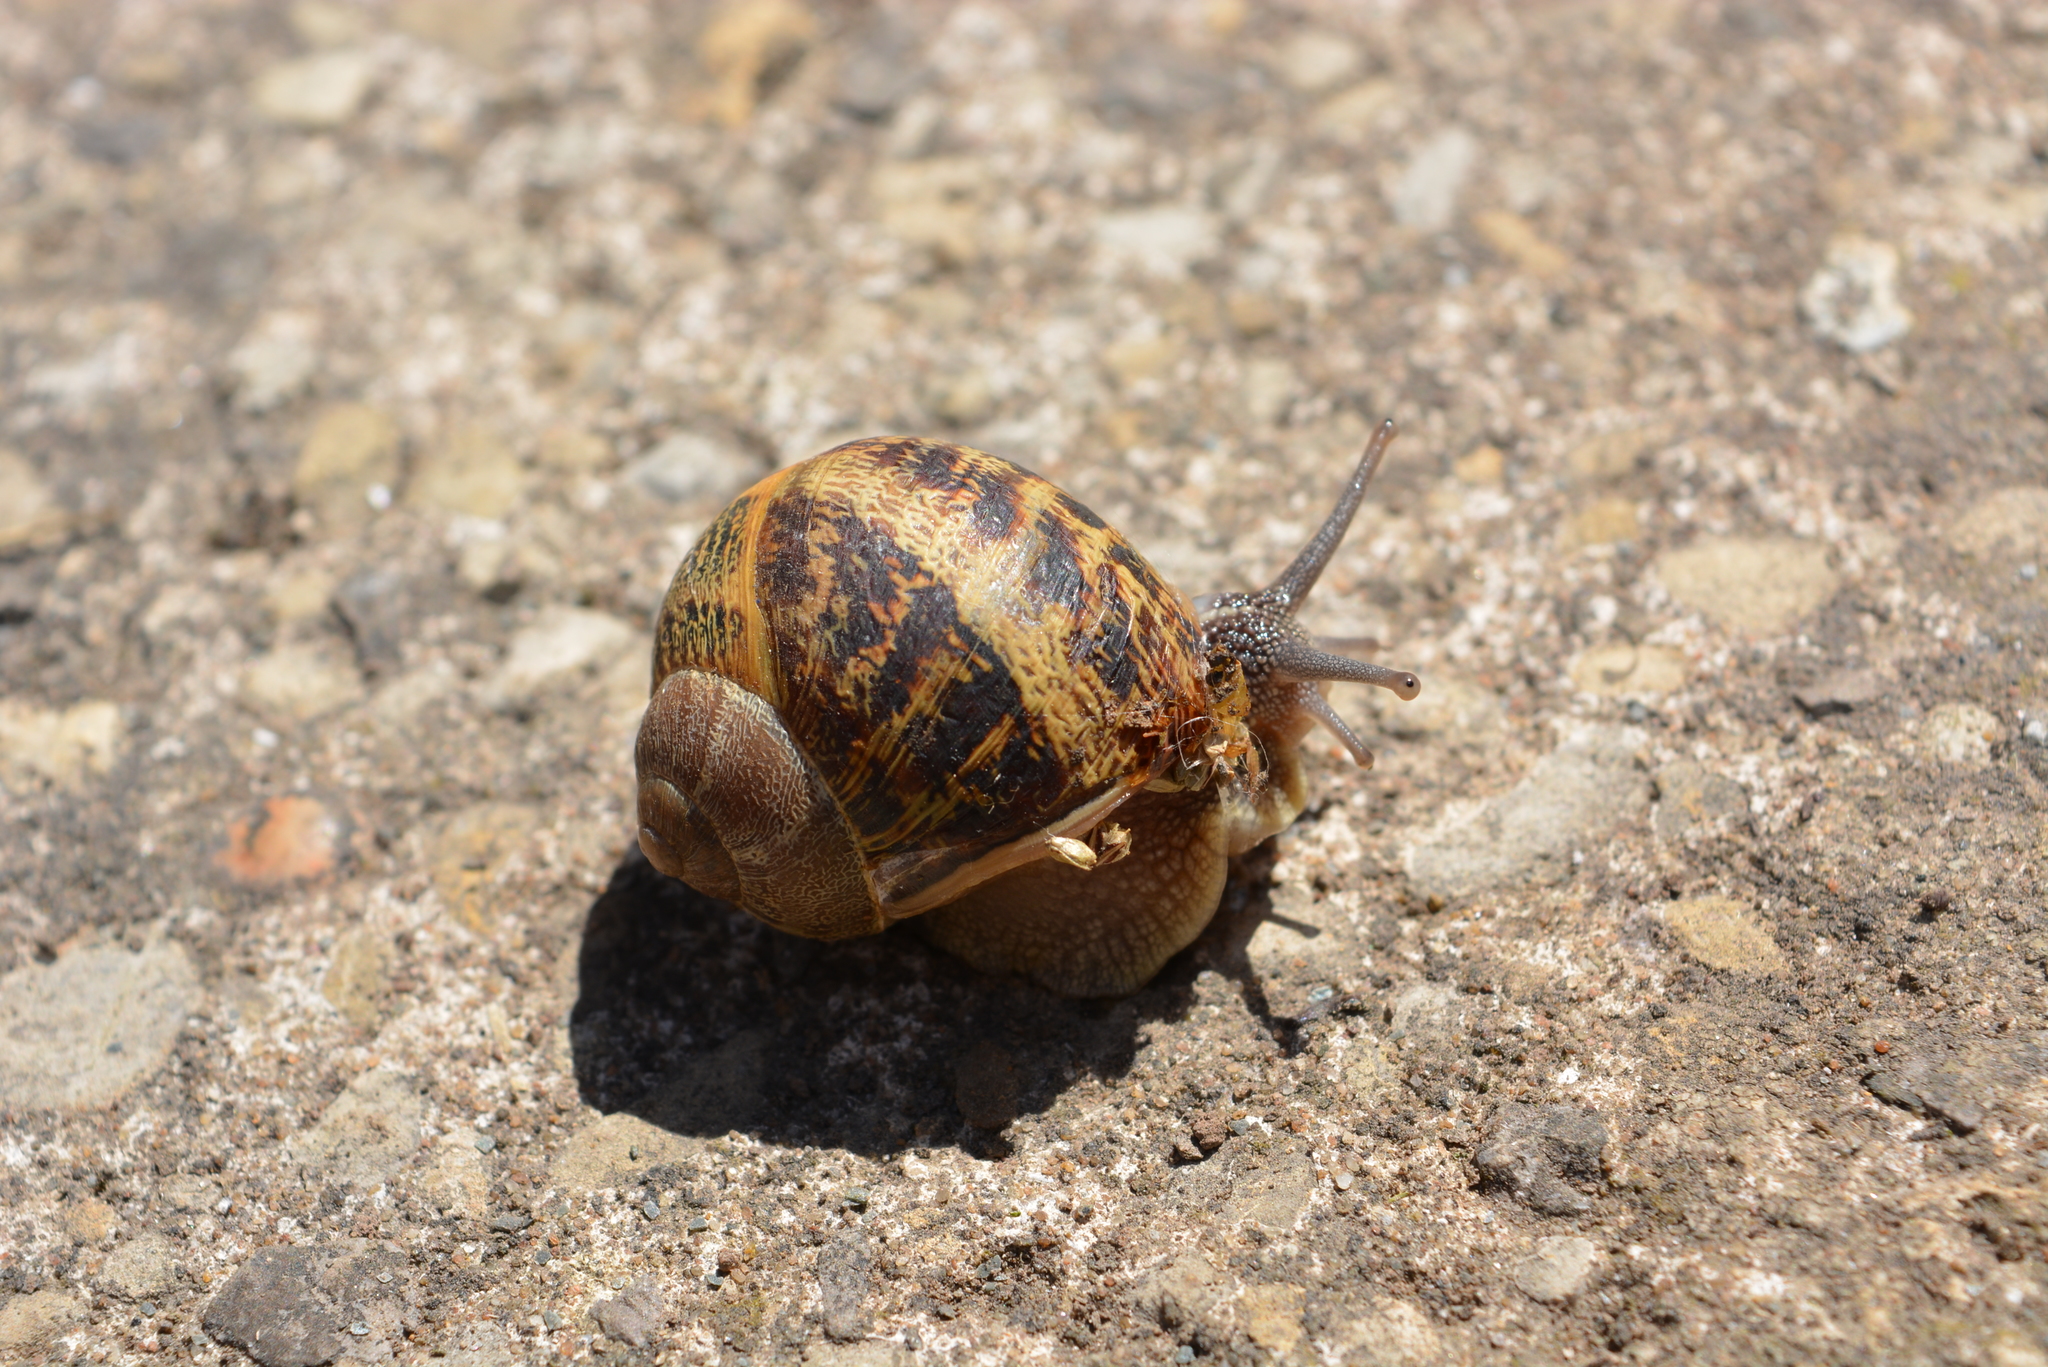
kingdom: Animalia
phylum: Mollusca
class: Gastropoda
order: Stylommatophora
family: Helicidae
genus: Cornu
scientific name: Cornu aspersum
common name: Brown garden snail
